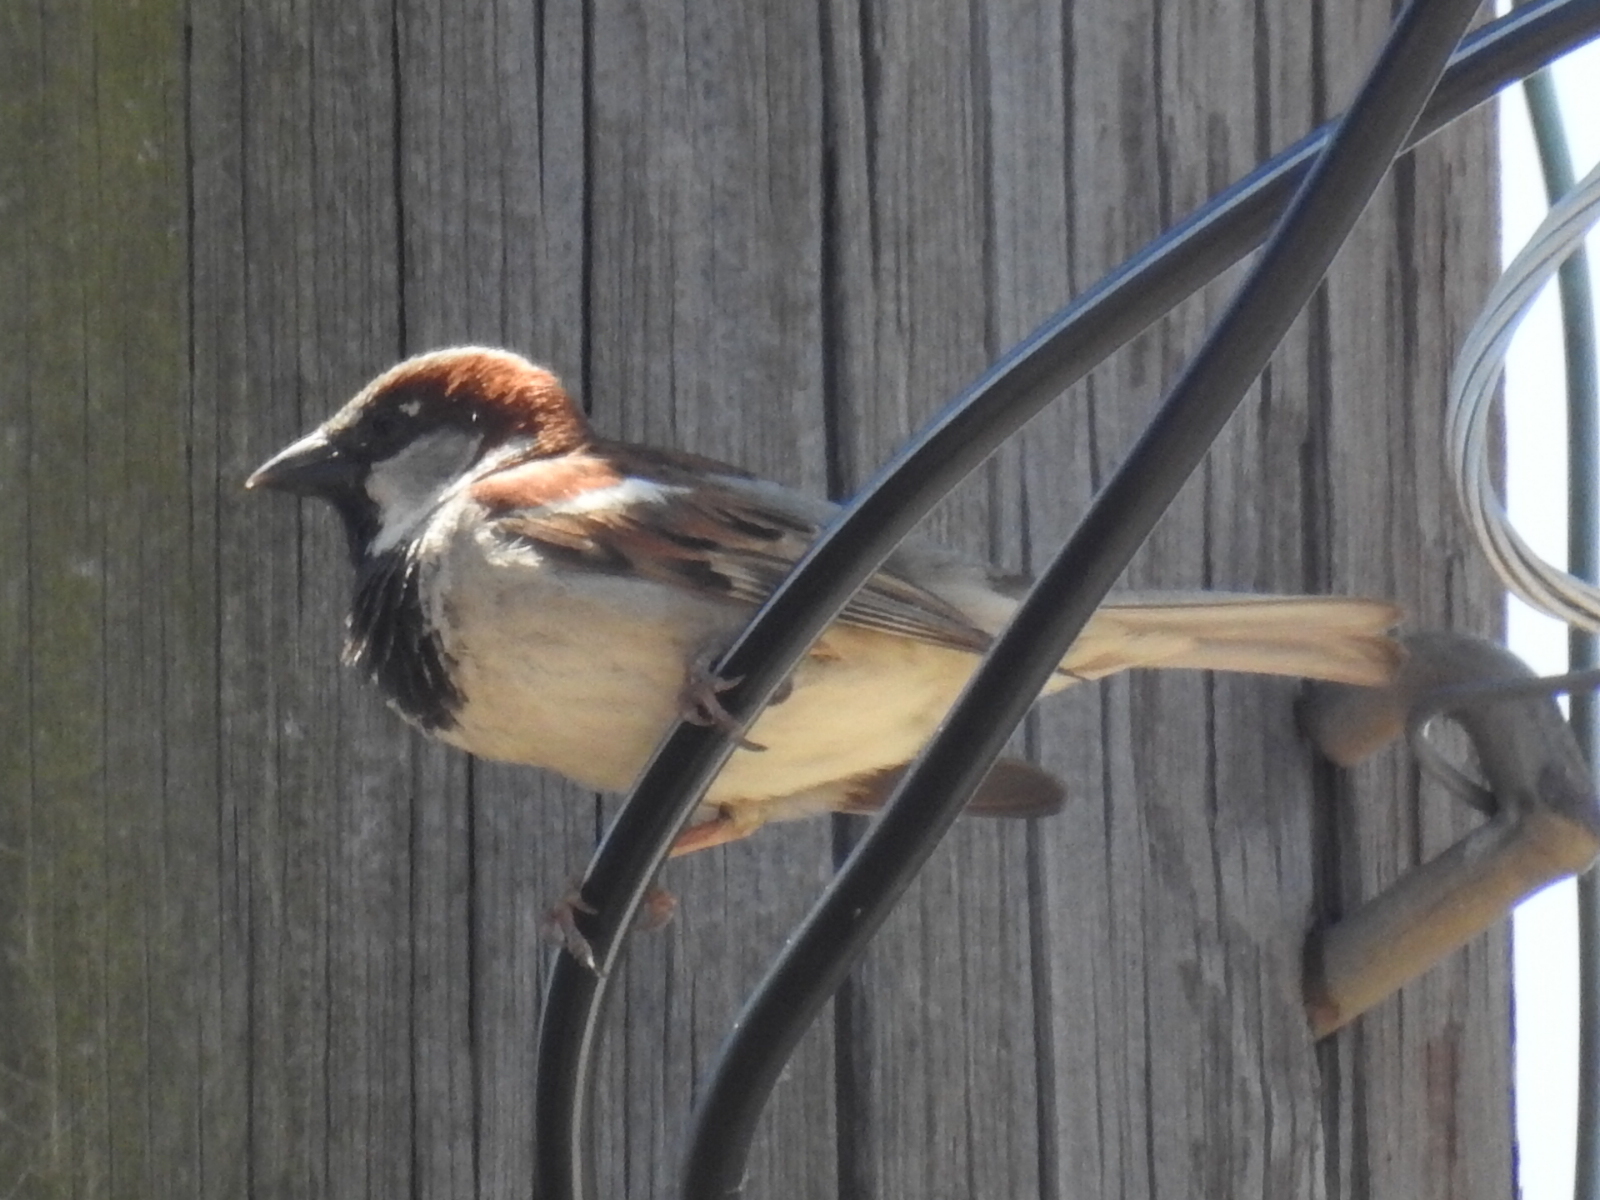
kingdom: Animalia
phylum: Chordata
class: Aves
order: Passeriformes
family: Passeridae
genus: Passer
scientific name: Passer domesticus
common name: House sparrow
